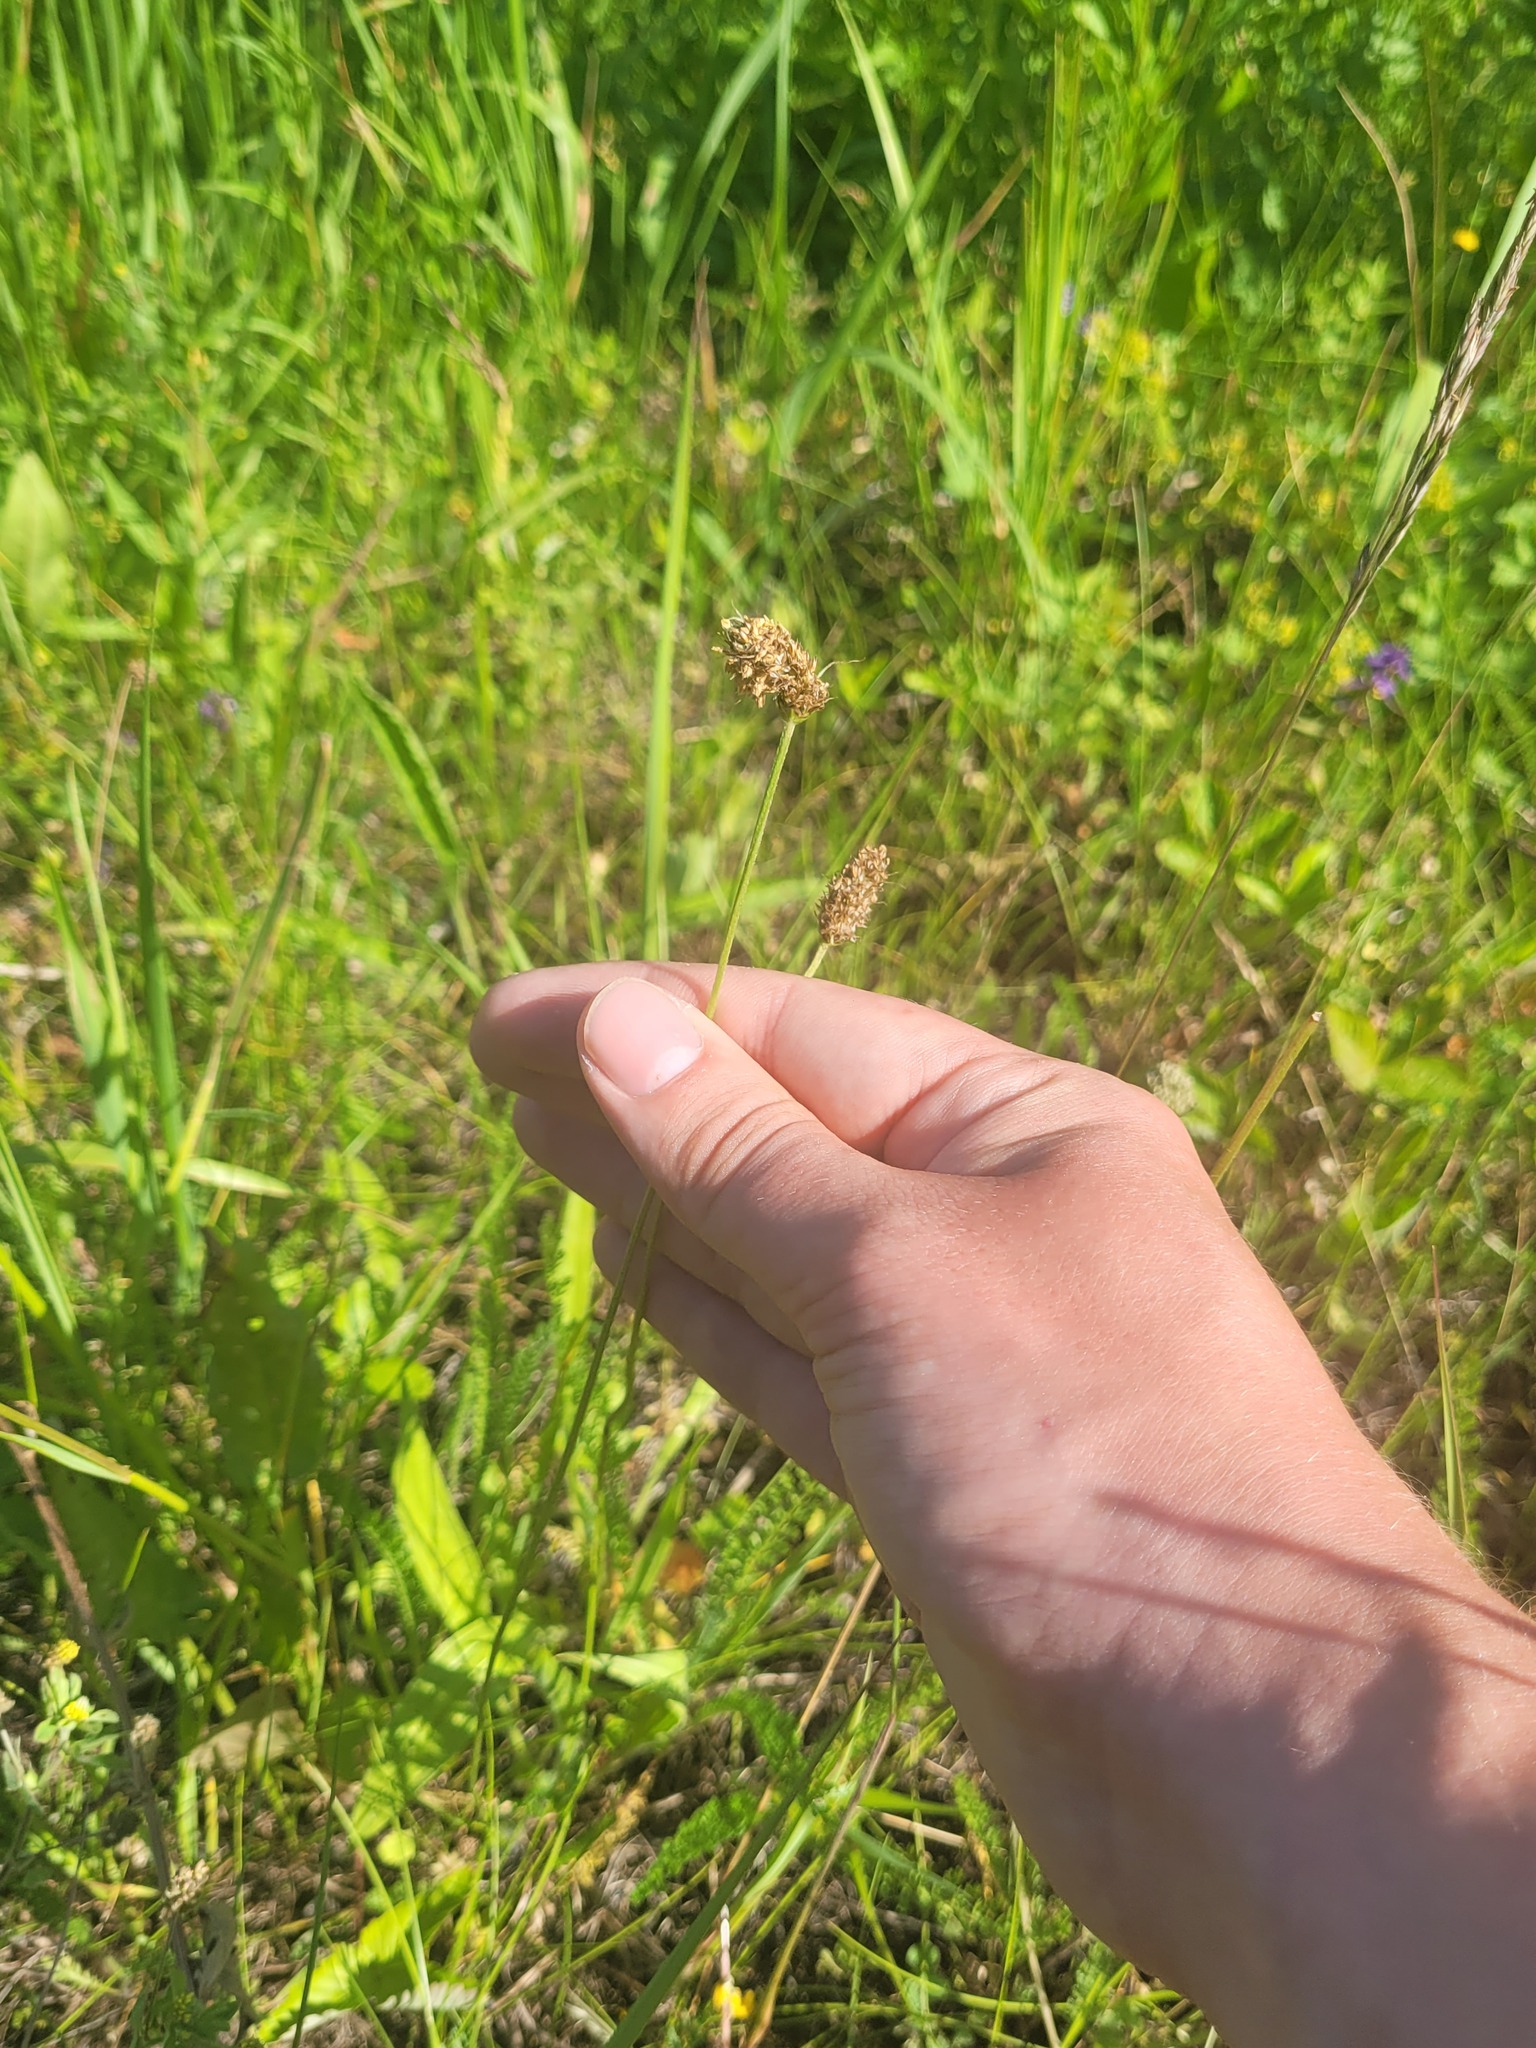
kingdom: Plantae
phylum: Tracheophyta
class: Magnoliopsida
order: Lamiales
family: Plantaginaceae
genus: Plantago
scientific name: Plantago lanceolata
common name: Ribwort plantain
